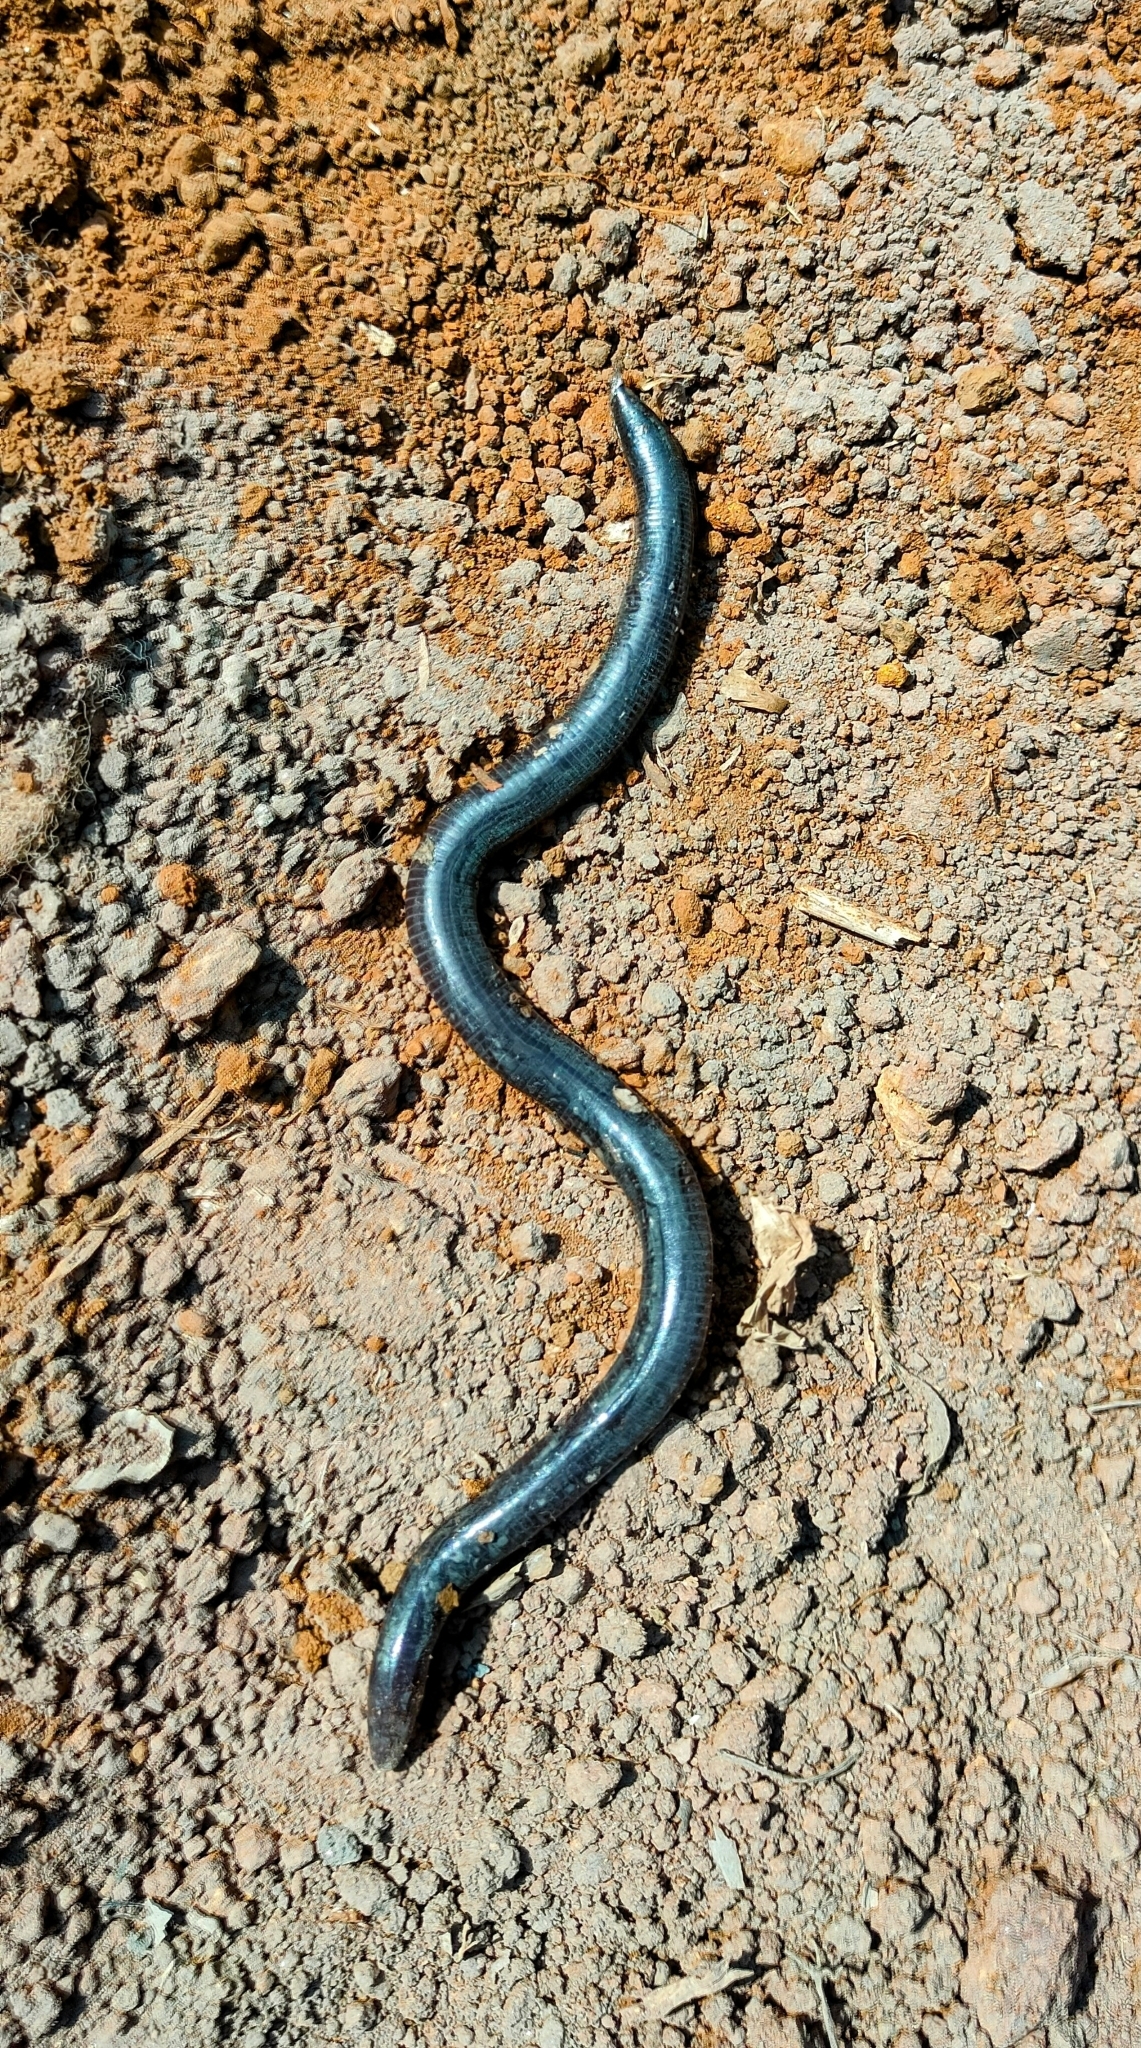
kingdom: Animalia
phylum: Chordata
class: Amphibia
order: Gymnophiona
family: Ichthyophiidae
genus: Uraeotyphlus
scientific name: Uraeotyphlus
